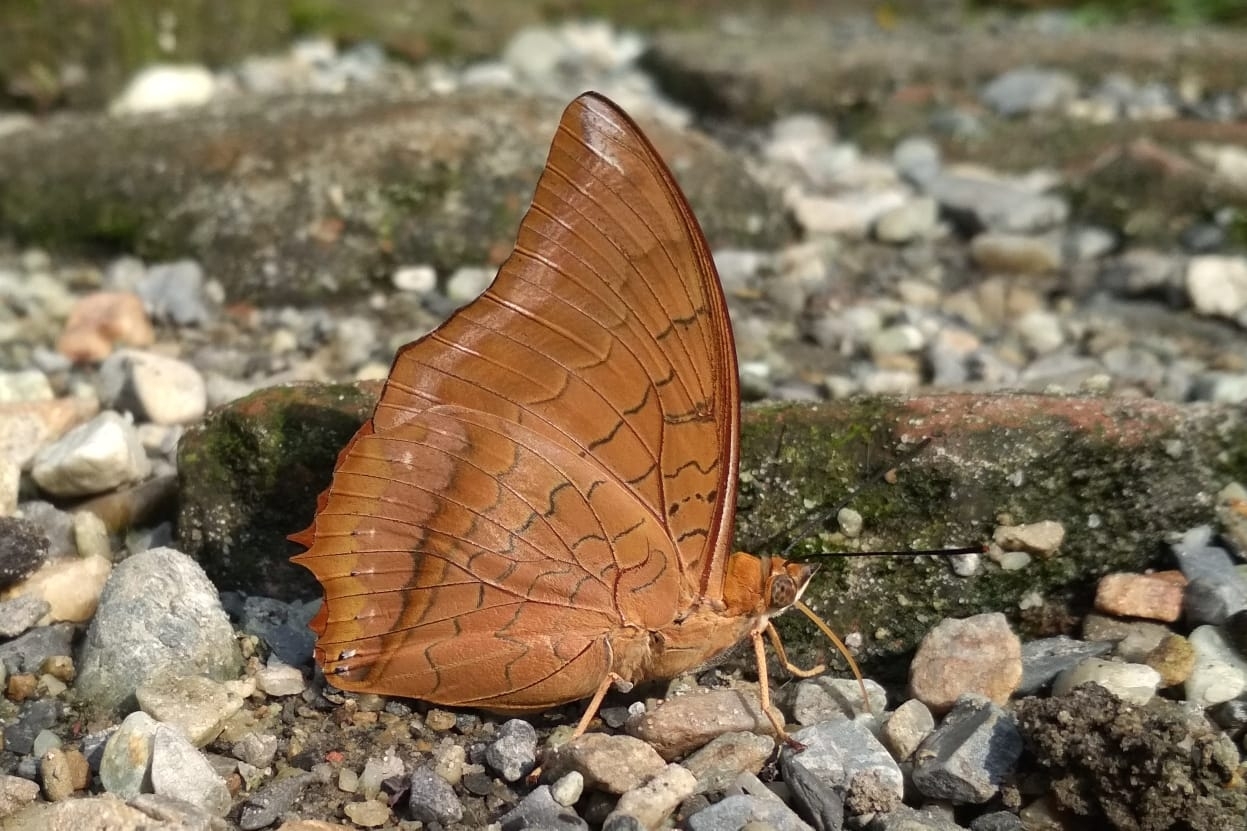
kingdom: Animalia
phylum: Arthropoda
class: Insecta
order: Lepidoptera
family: Nymphalidae
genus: Charaxes
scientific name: Charaxes bernardus
